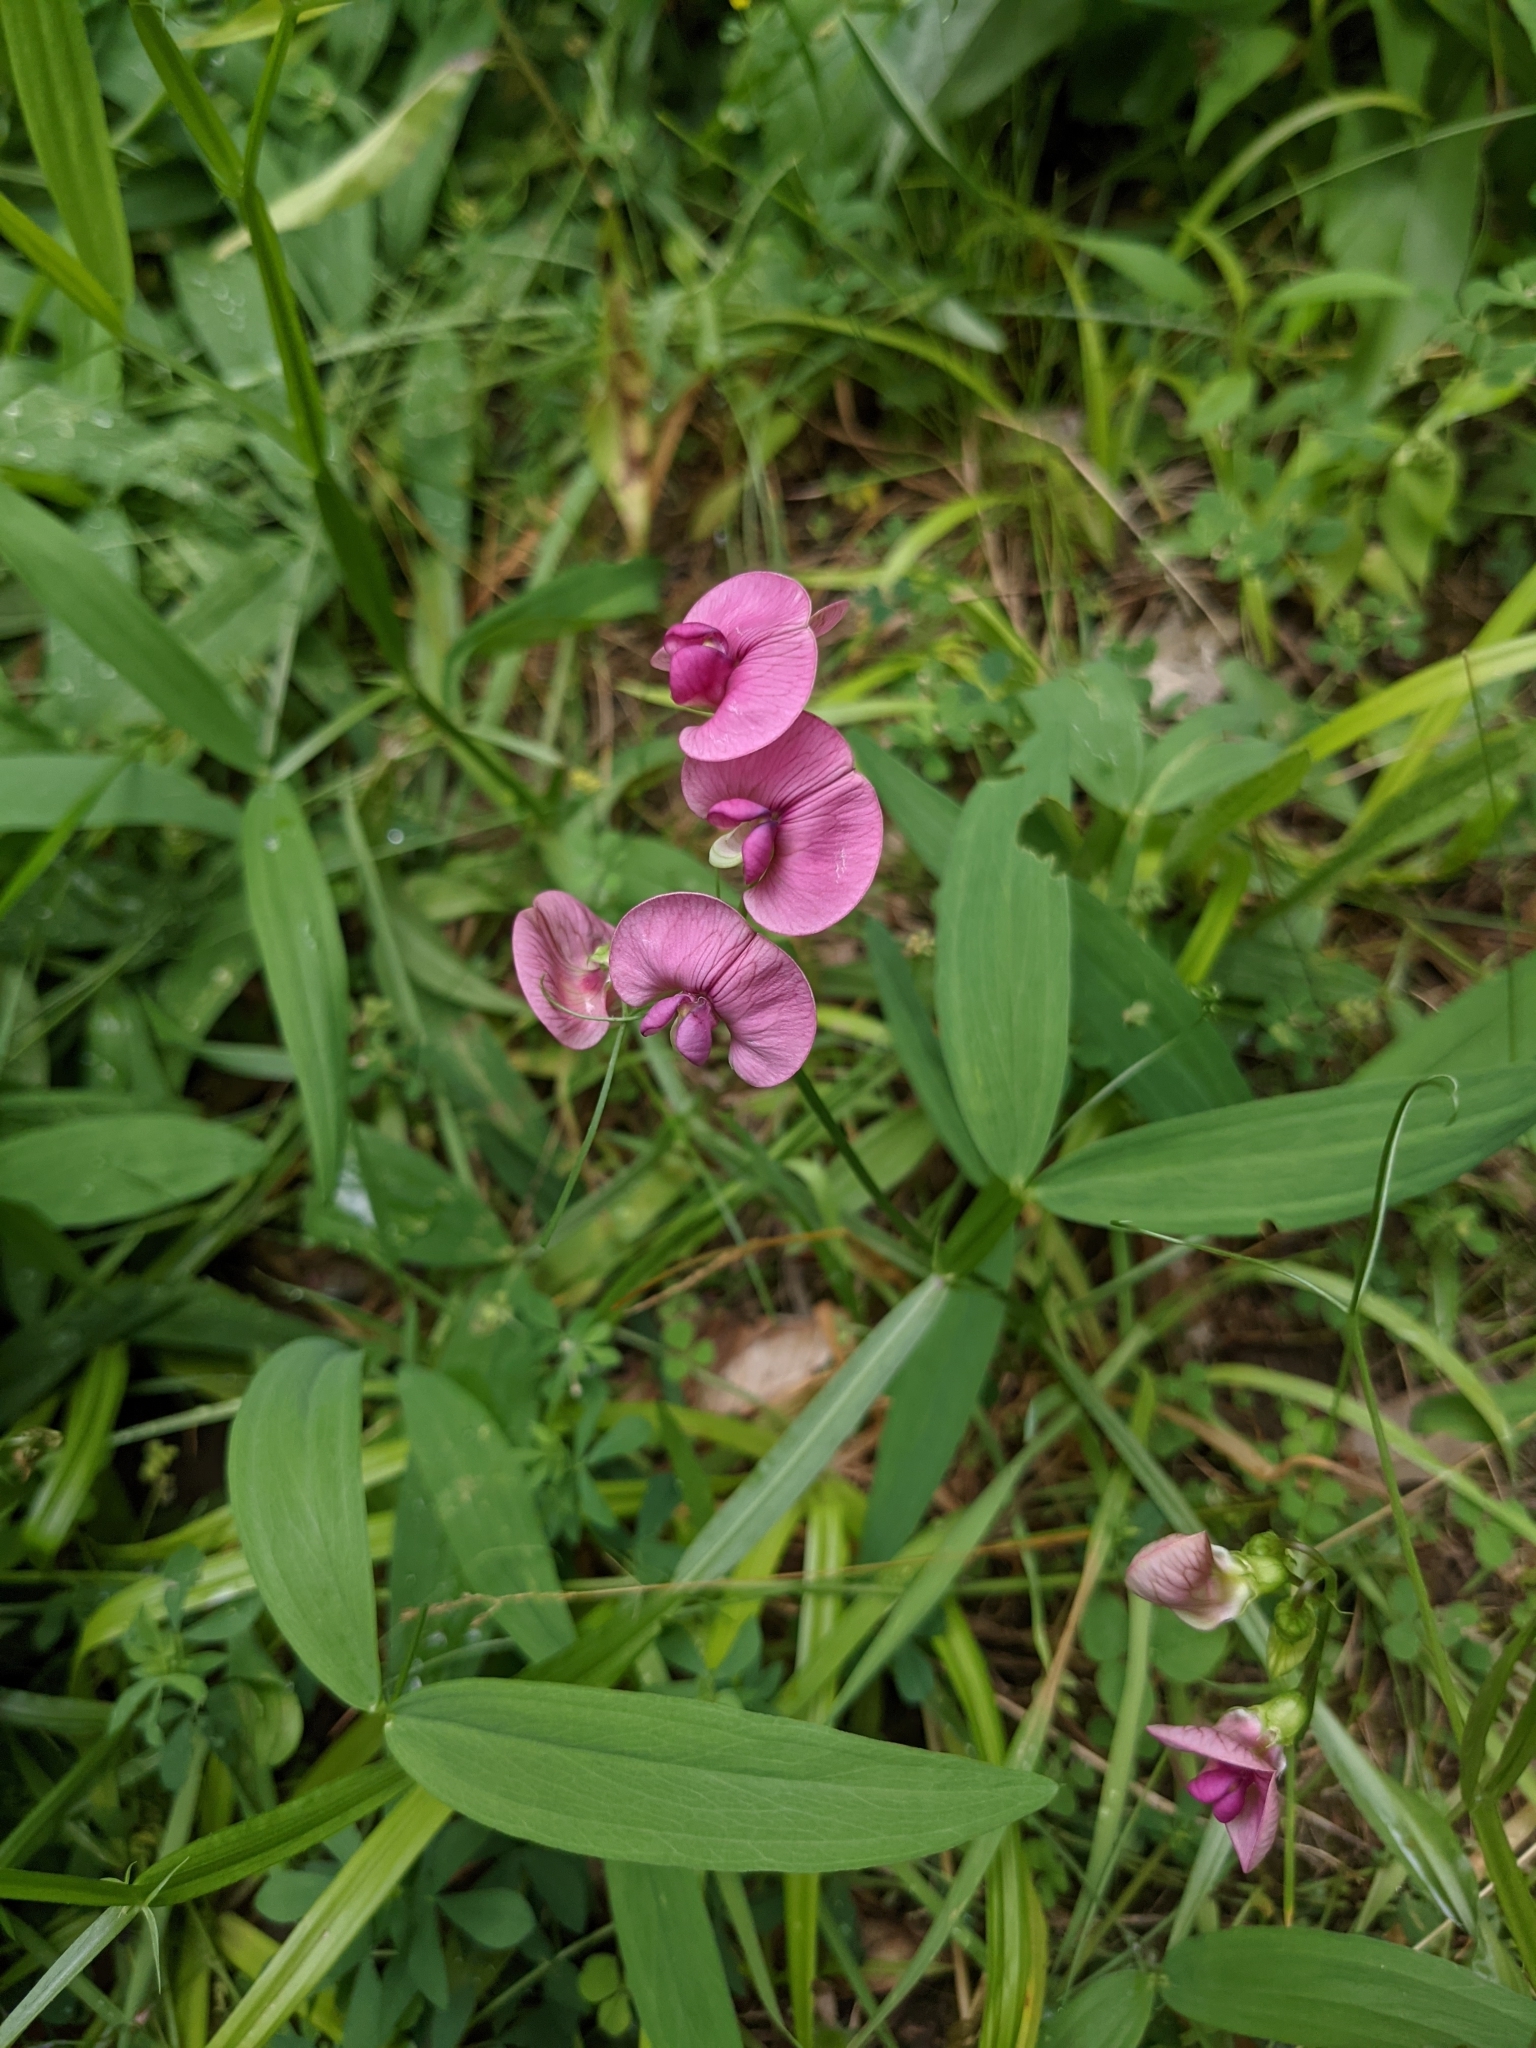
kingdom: Plantae
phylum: Tracheophyta
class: Magnoliopsida
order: Fabales
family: Fabaceae
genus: Lathyrus
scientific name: Lathyrus sylvestris
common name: Flat pea
